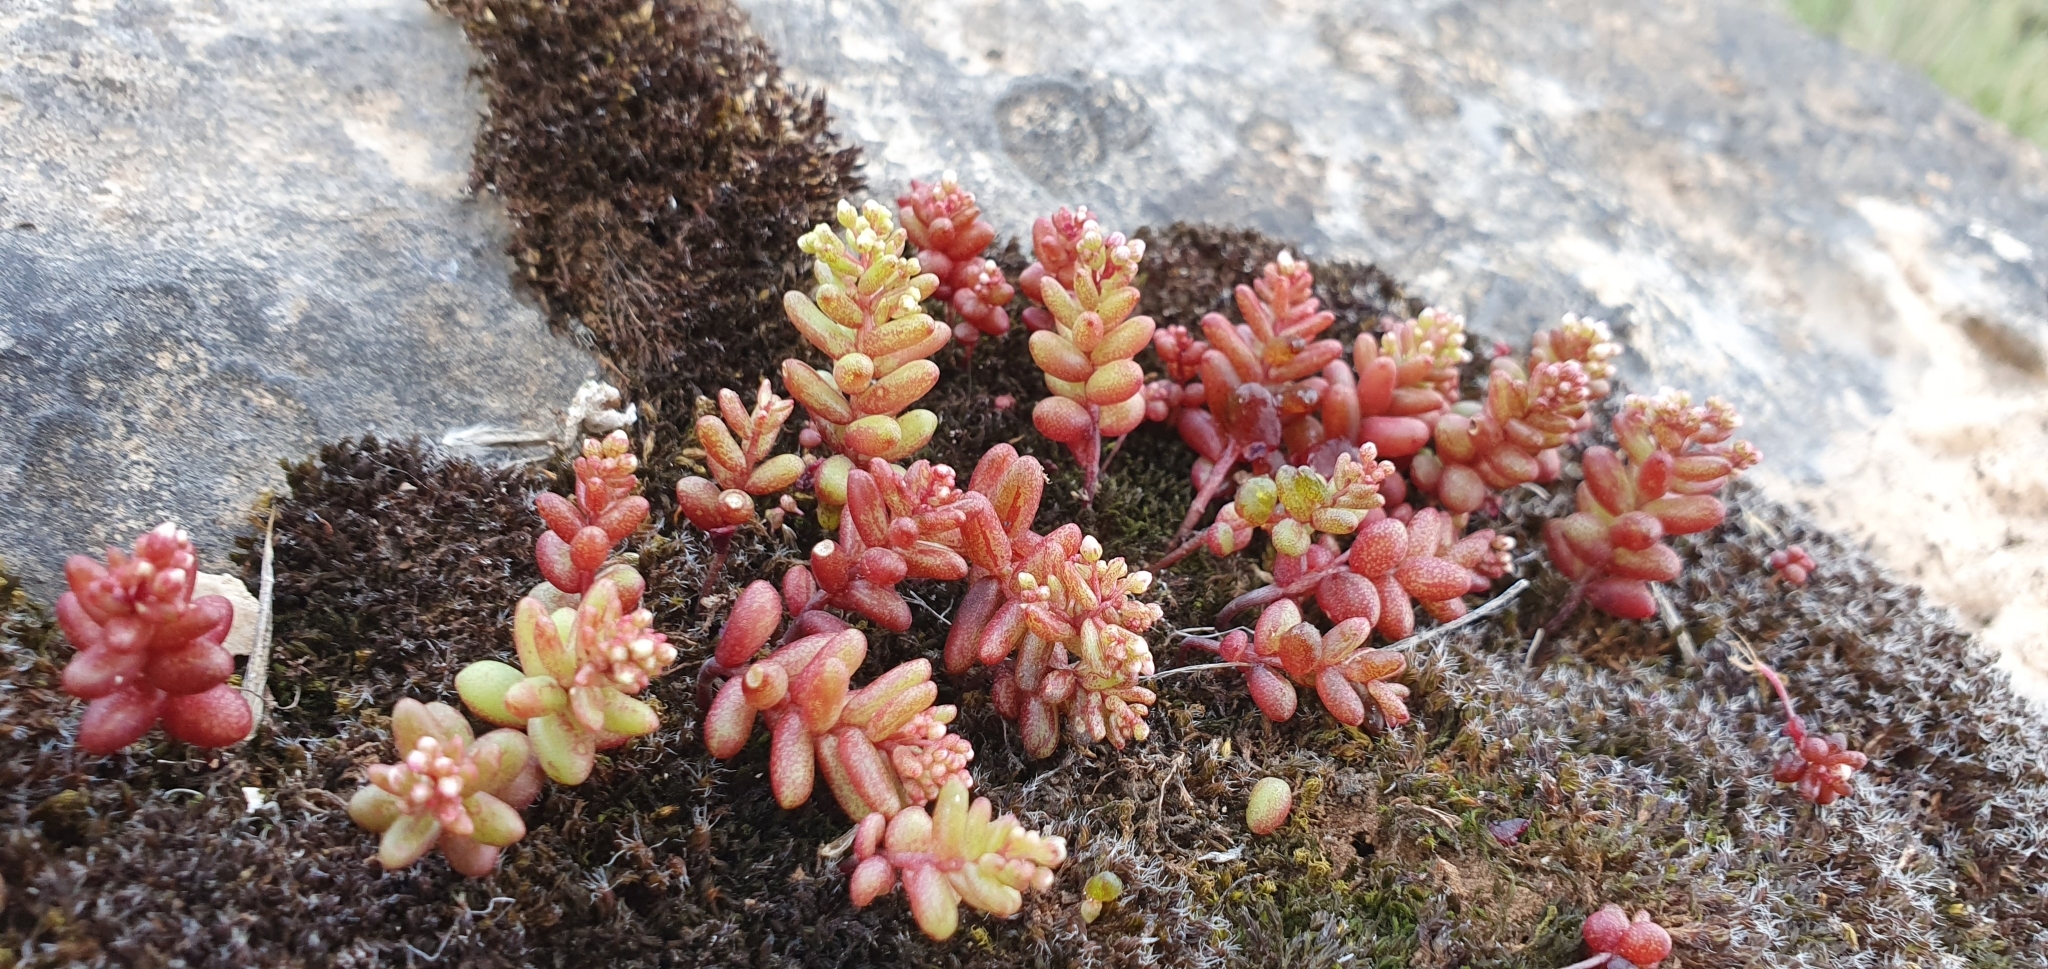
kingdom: Plantae
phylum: Tracheophyta
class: Magnoliopsida
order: Saxifragales
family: Crassulaceae
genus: Sedum
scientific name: Sedum caeruleum
